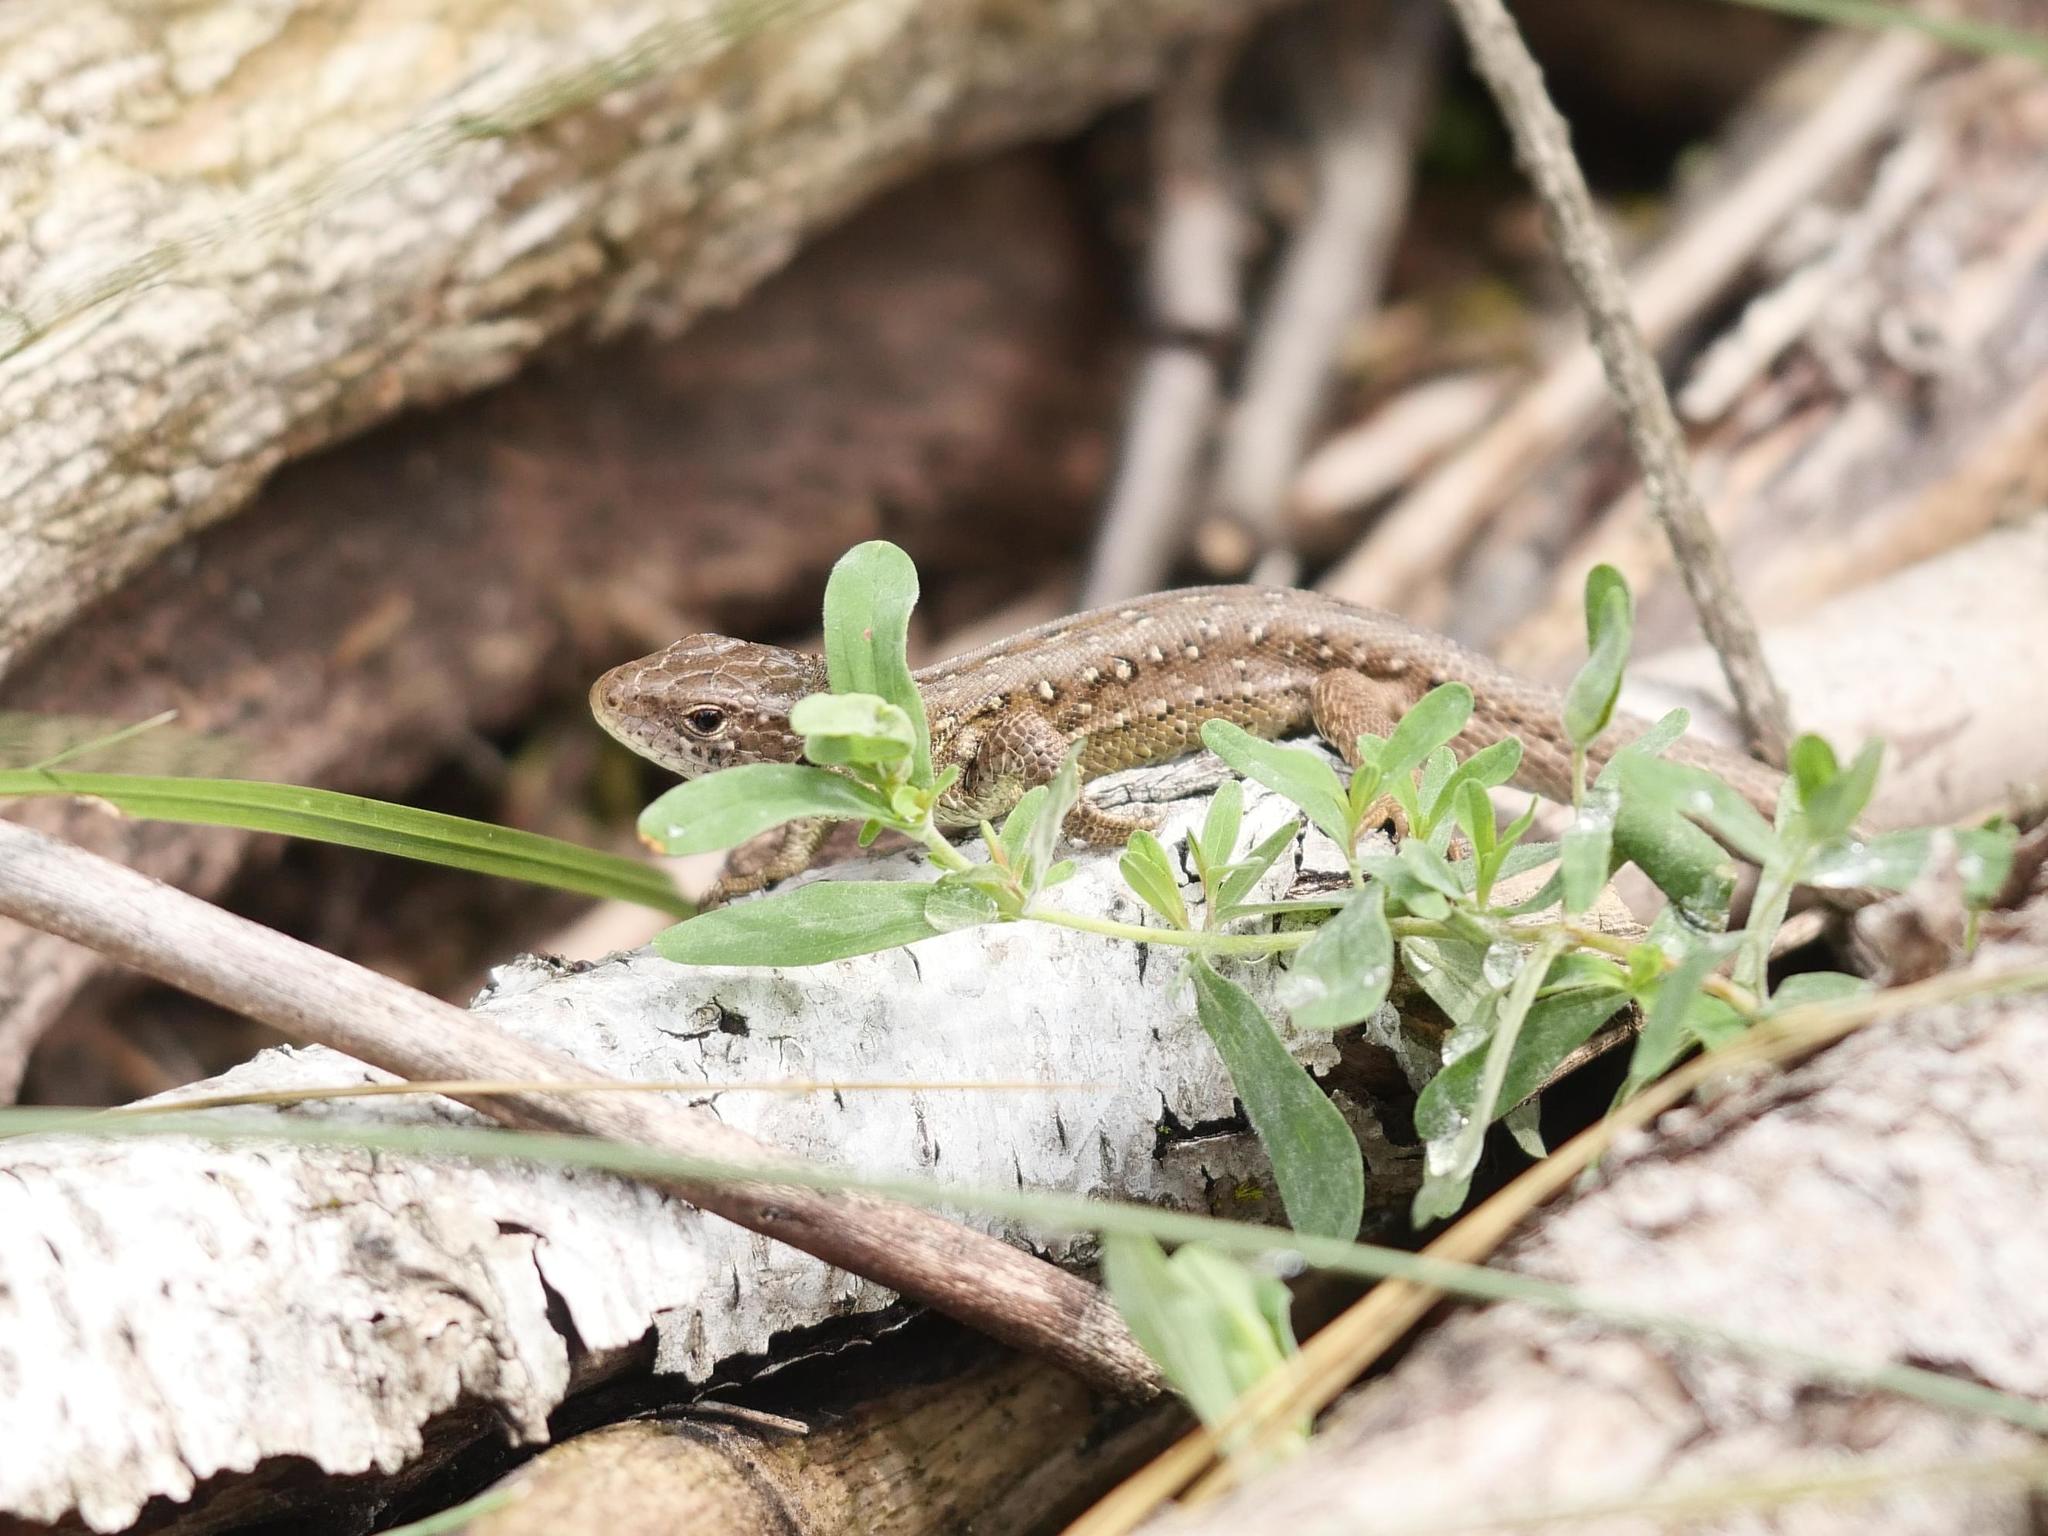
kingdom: Animalia
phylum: Chordata
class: Squamata
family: Lacertidae
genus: Lacerta
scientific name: Lacerta agilis
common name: Sand lizard
